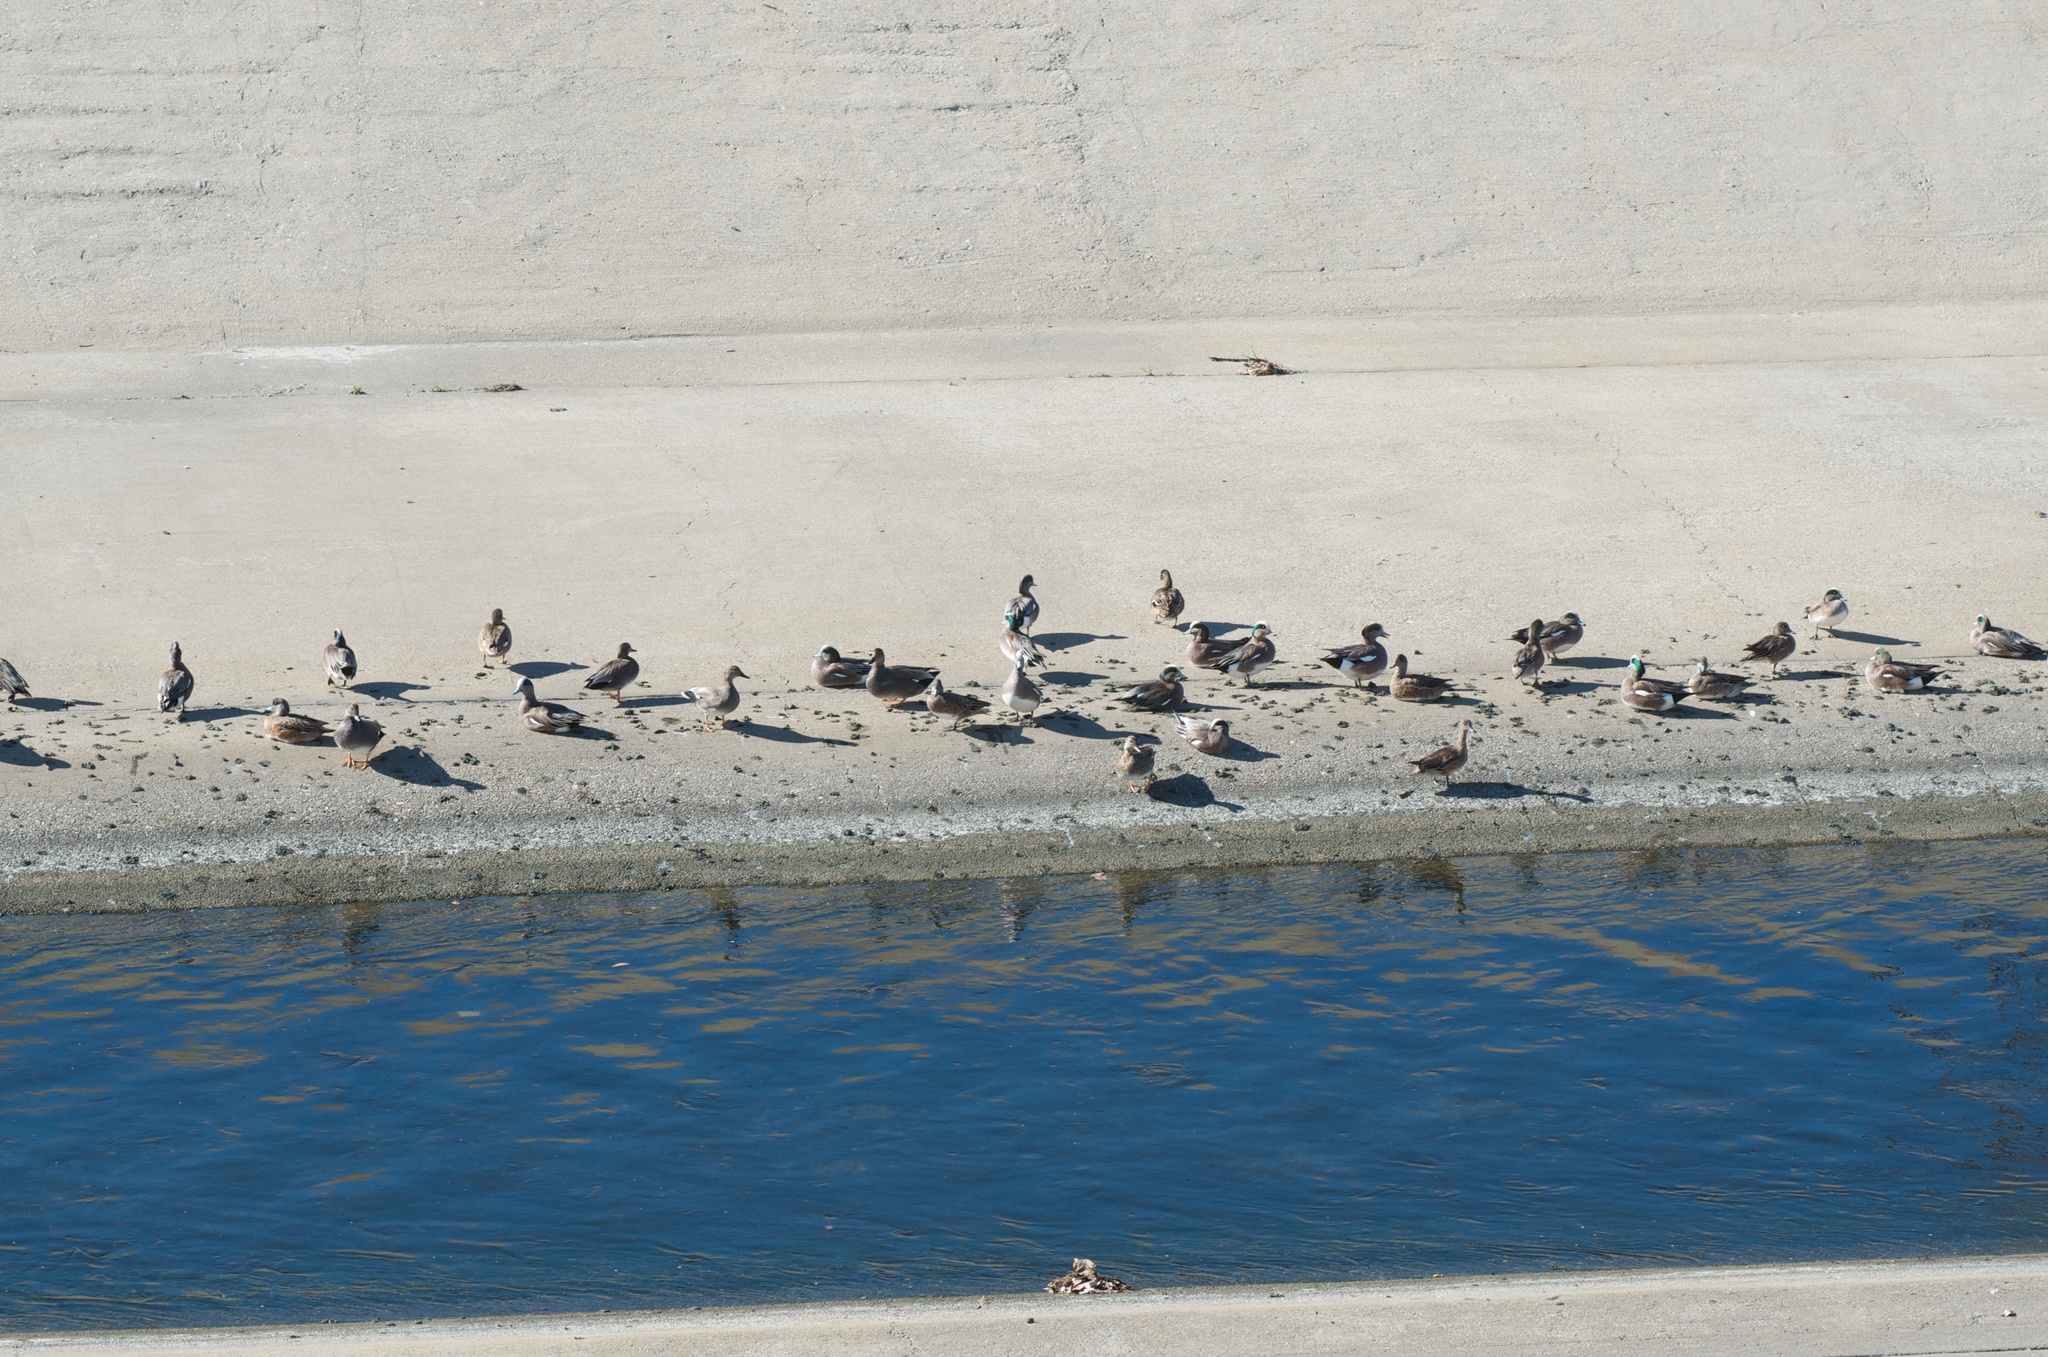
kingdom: Animalia
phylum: Chordata
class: Aves
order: Anseriformes
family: Anatidae
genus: Mareca
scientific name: Mareca americana
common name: American wigeon
